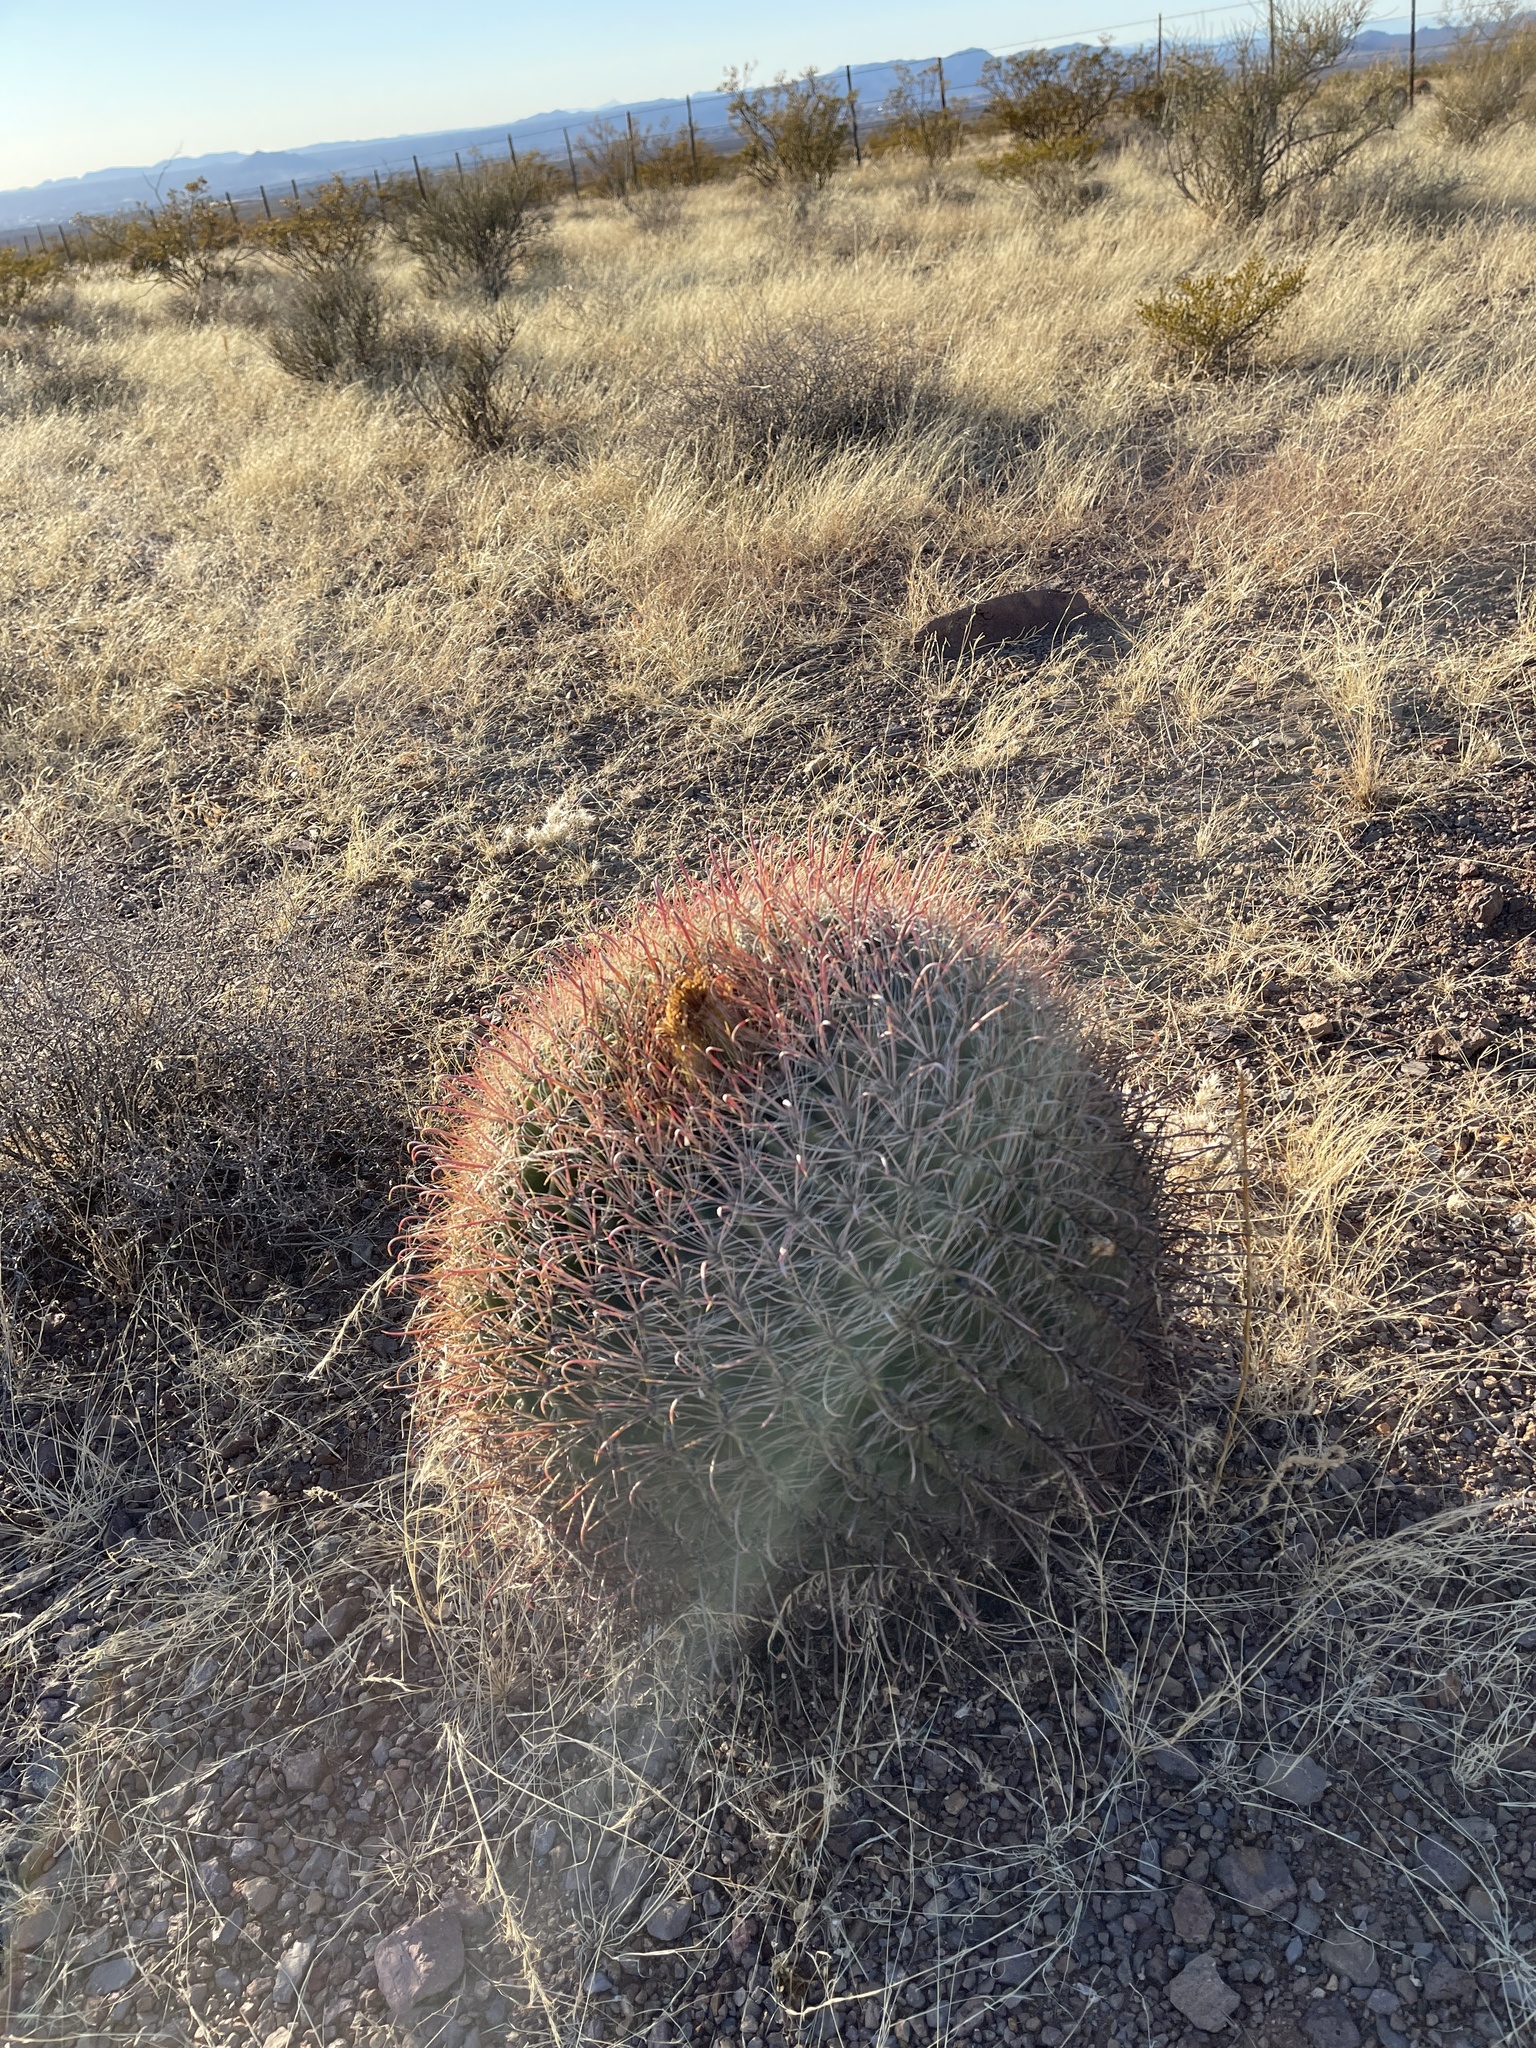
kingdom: Plantae
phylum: Tracheophyta
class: Magnoliopsida
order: Caryophyllales
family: Cactaceae
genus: Ferocactus
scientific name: Ferocactus wislizeni
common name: Candy barrel cactus
